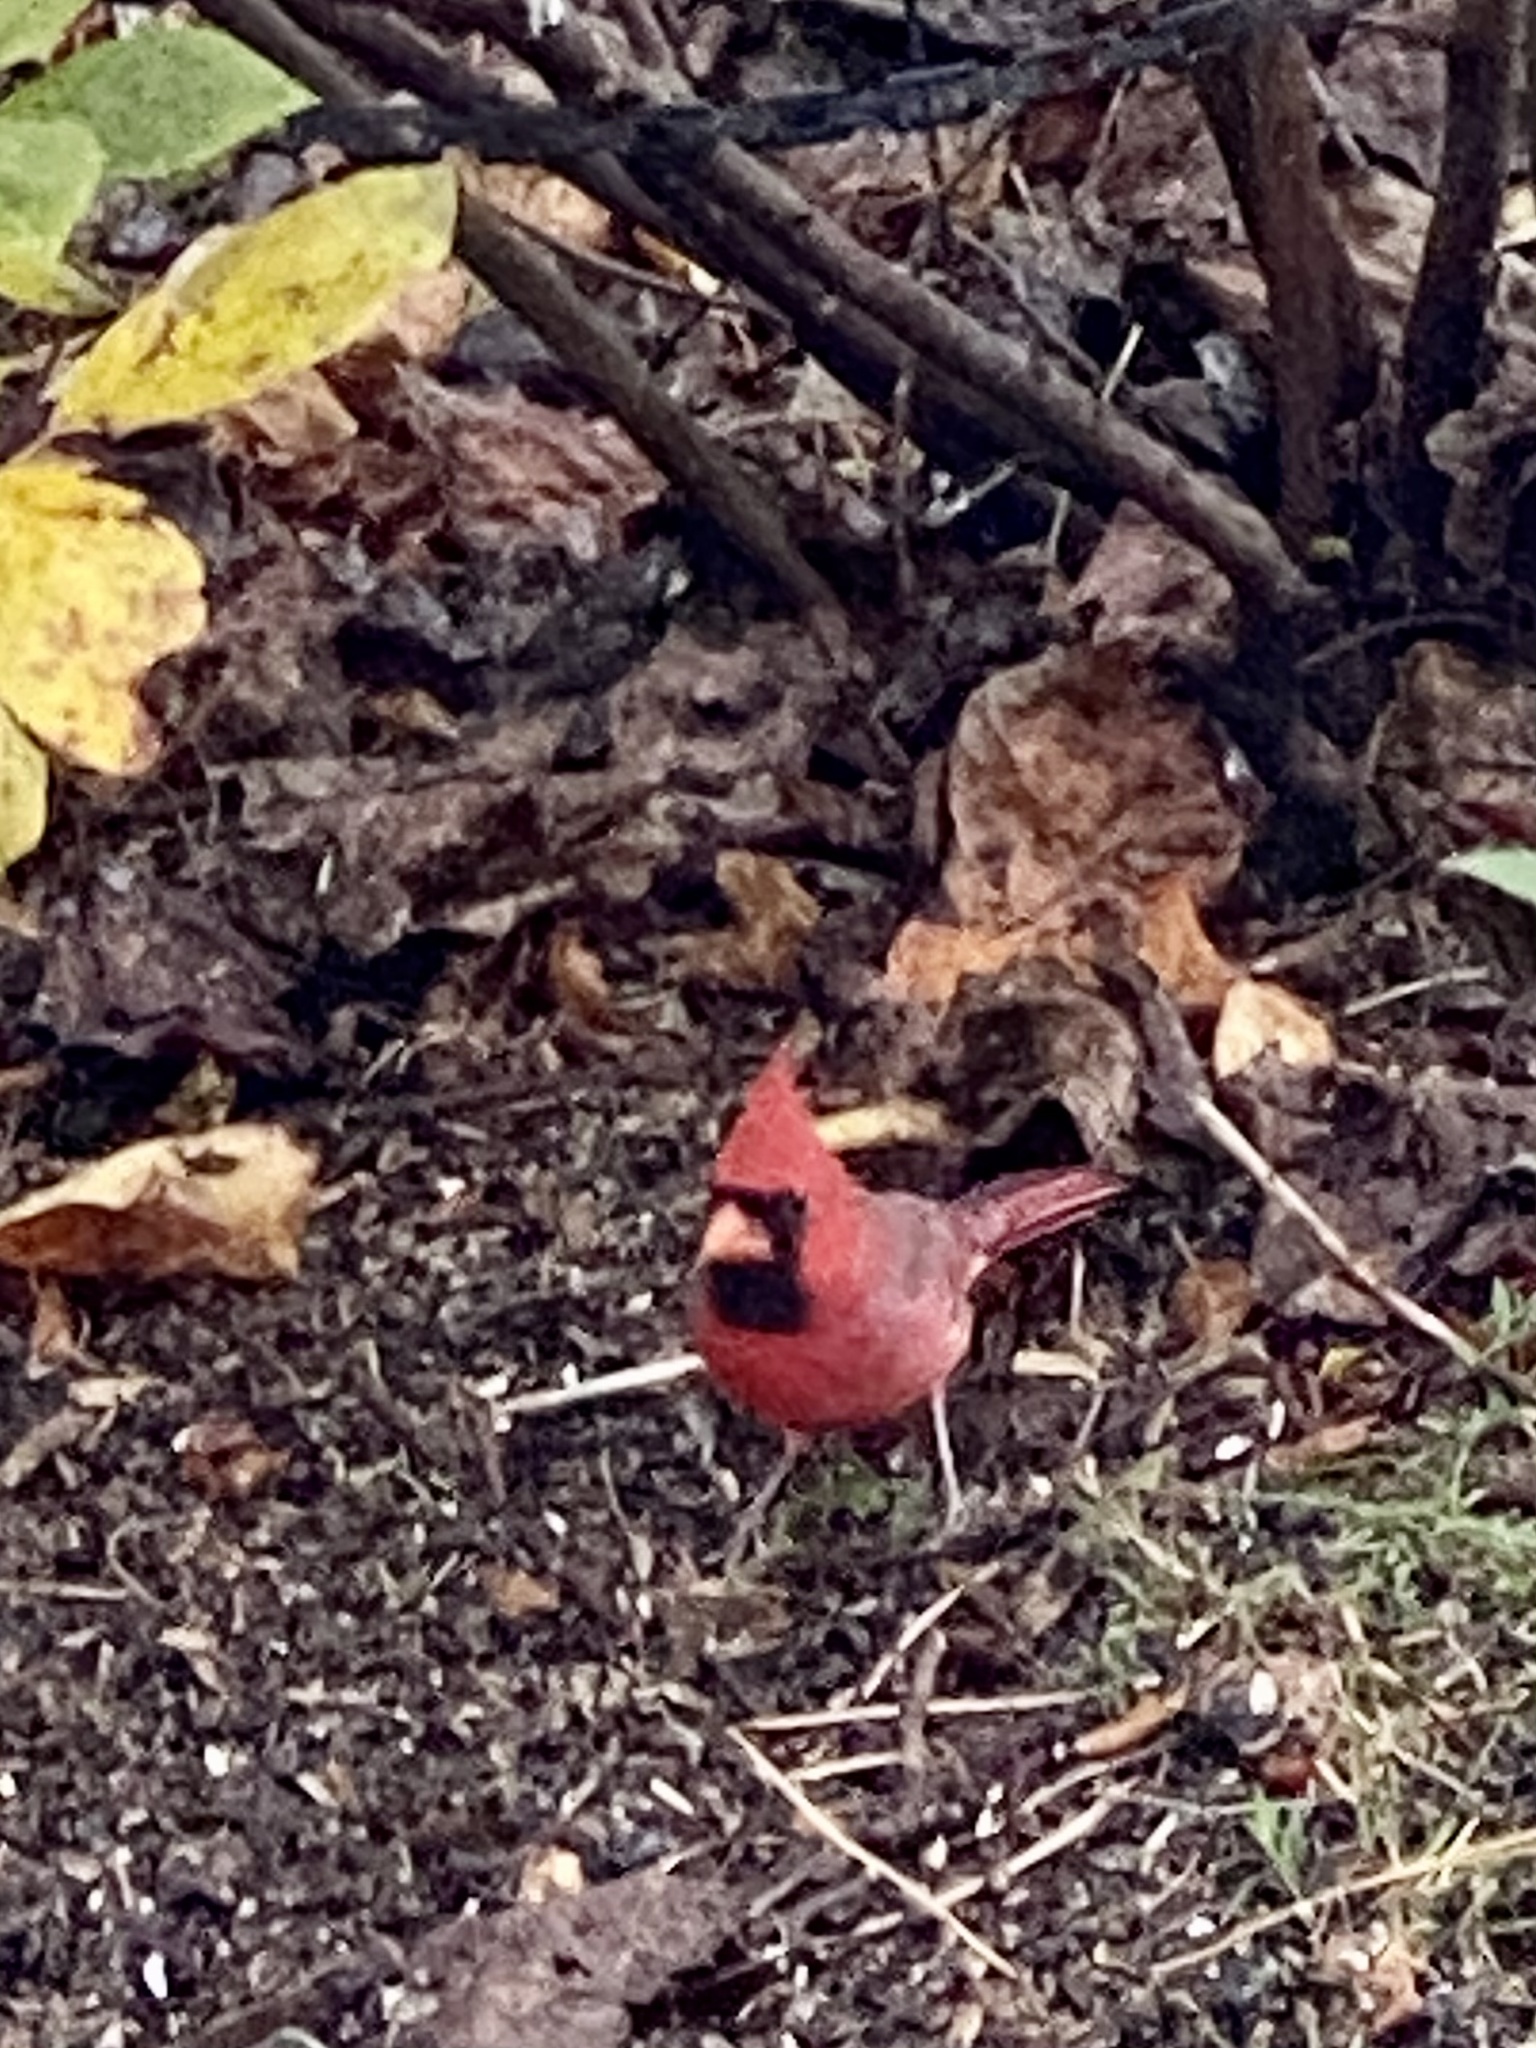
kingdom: Animalia
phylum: Chordata
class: Aves
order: Passeriformes
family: Cardinalidae
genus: Cardinalis
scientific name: Cardinalis cardinalis
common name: Northern cardinal
